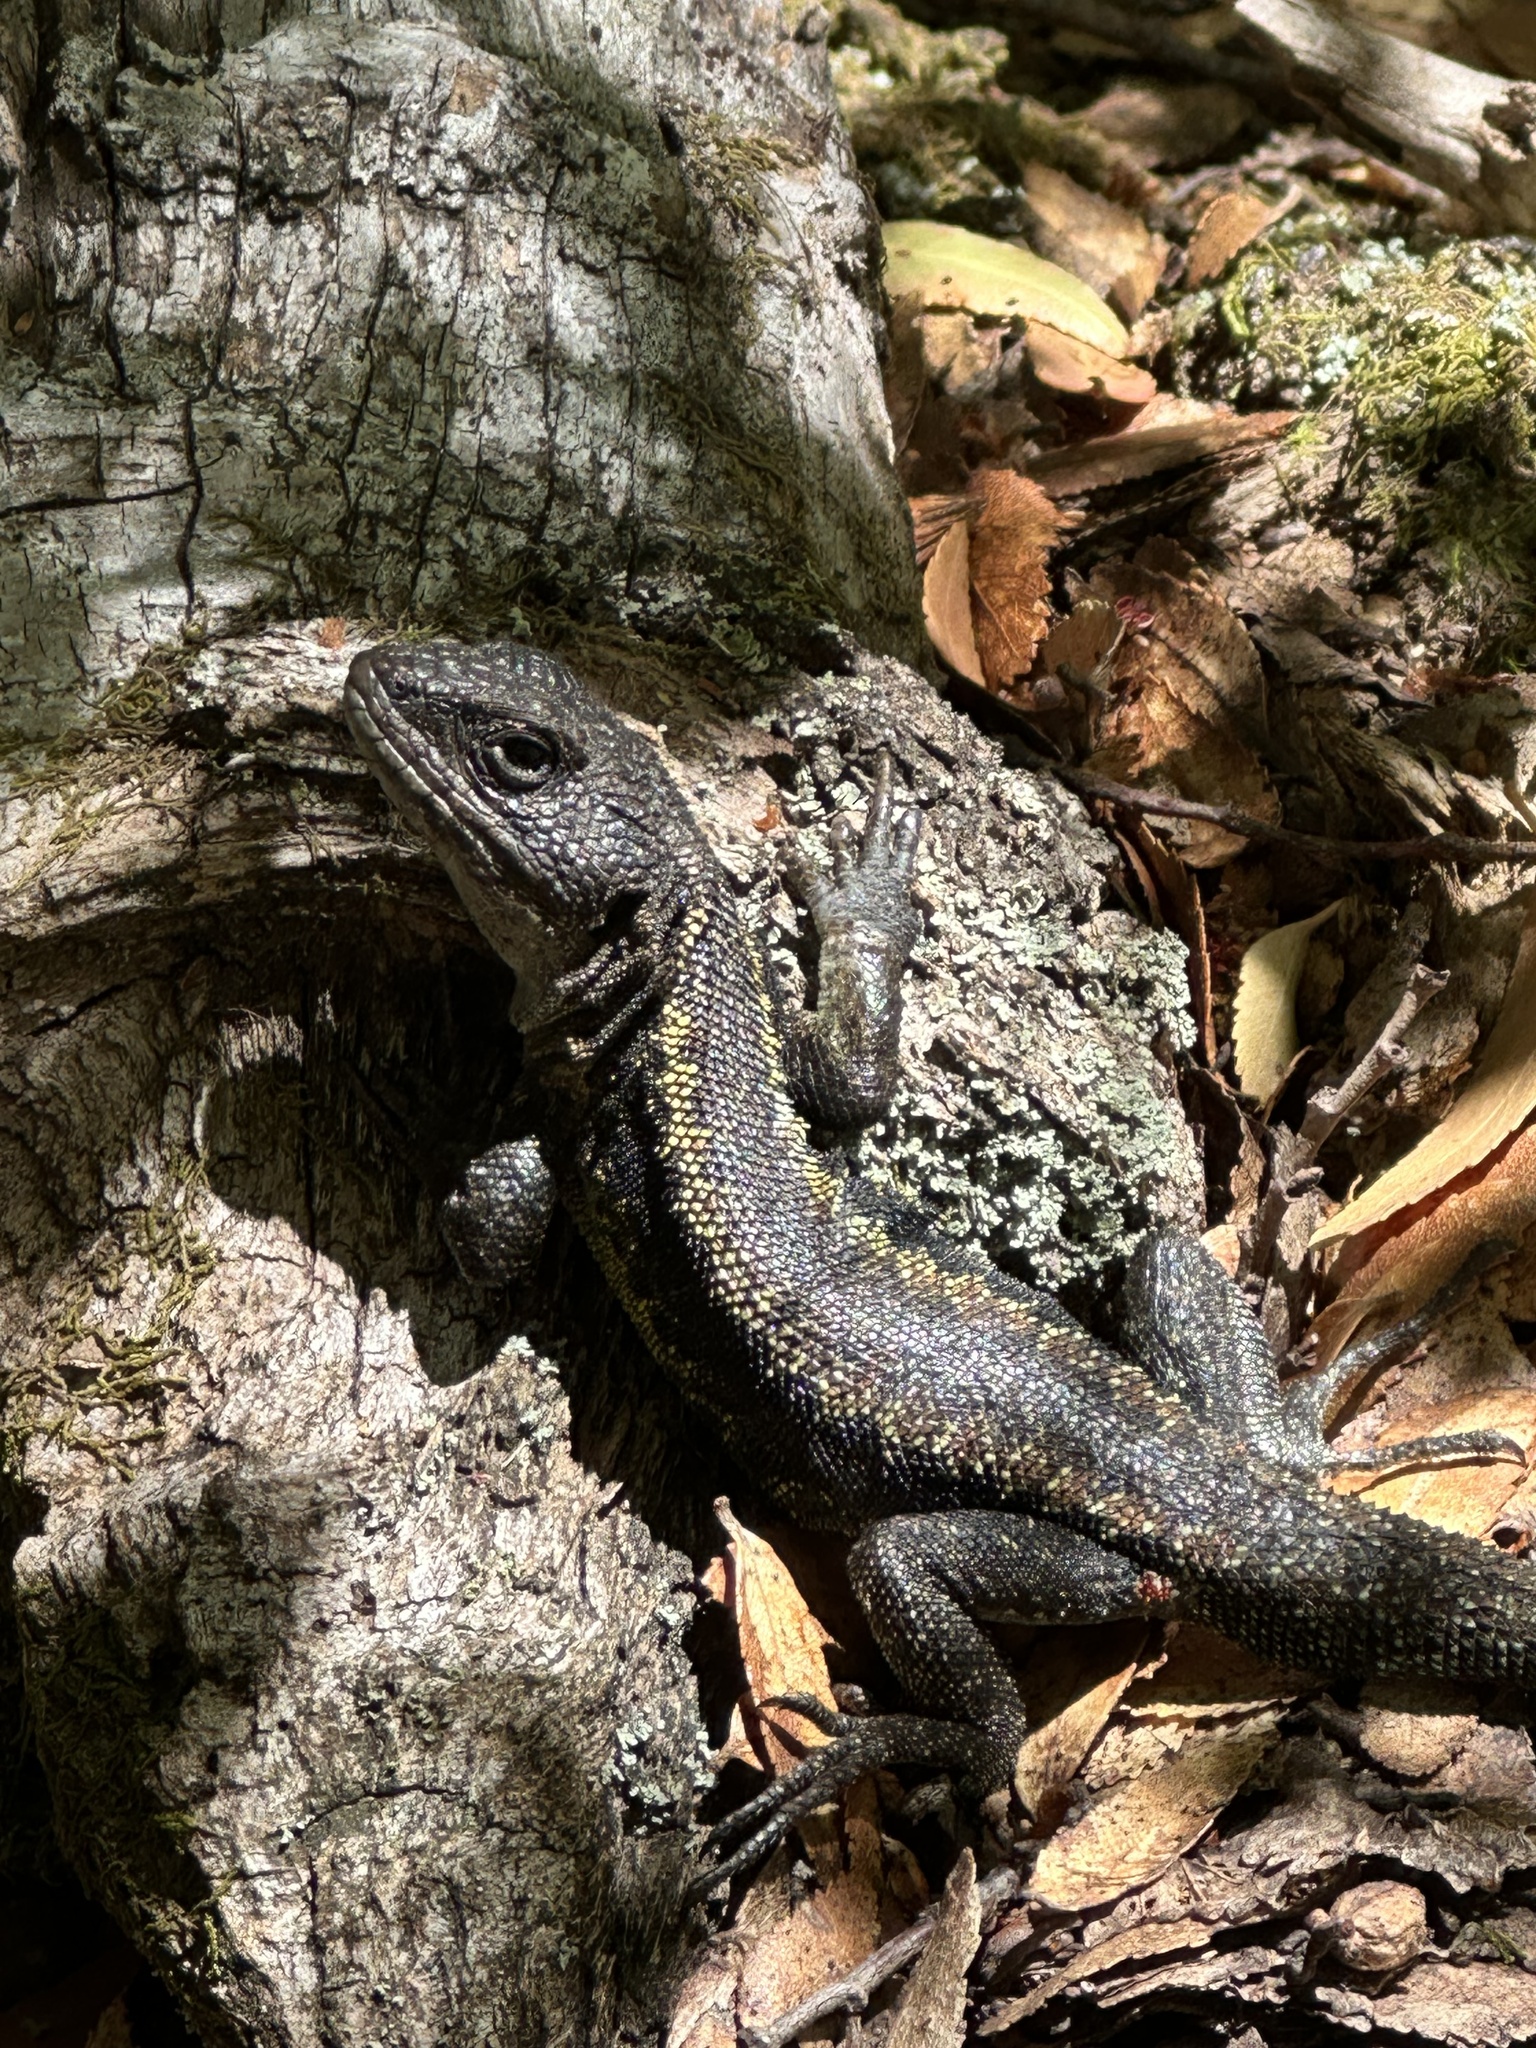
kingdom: Animalia
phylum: Chordata
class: Squamata
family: Liolaemidae
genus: Liolaemus
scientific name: Liolaemus pictus
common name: Painted tree iguana
